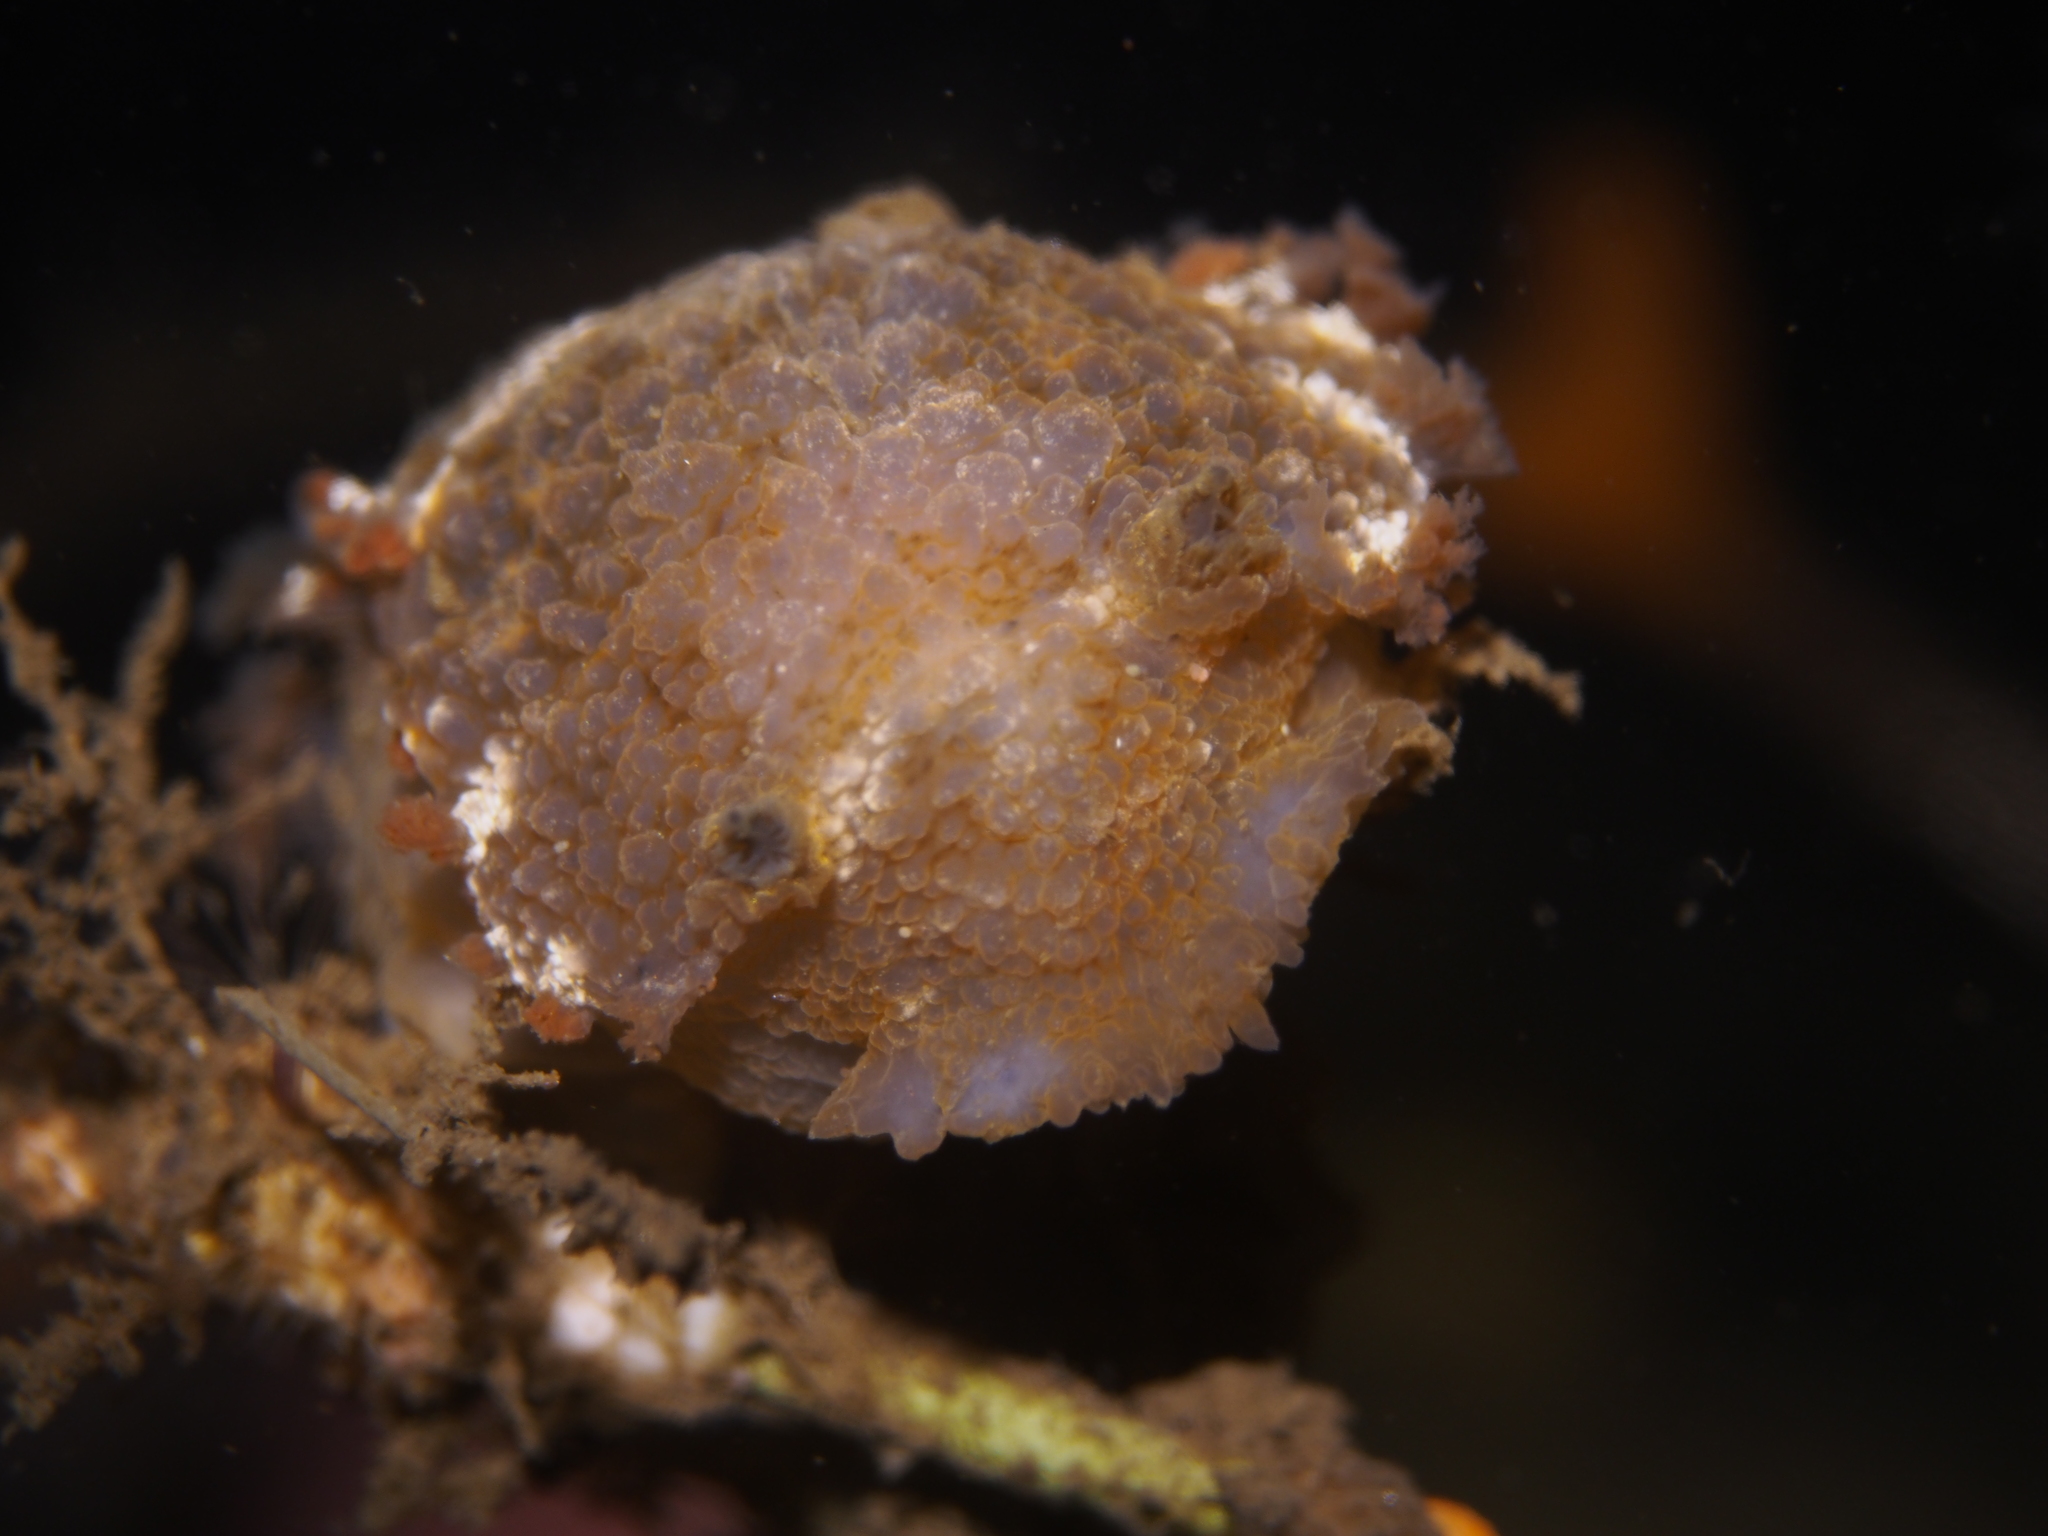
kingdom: Animalia
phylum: Mollusca
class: Gastropoda
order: Nudibranchia
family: Tritoniidae
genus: Tritonia
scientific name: Tritonia hombergii
